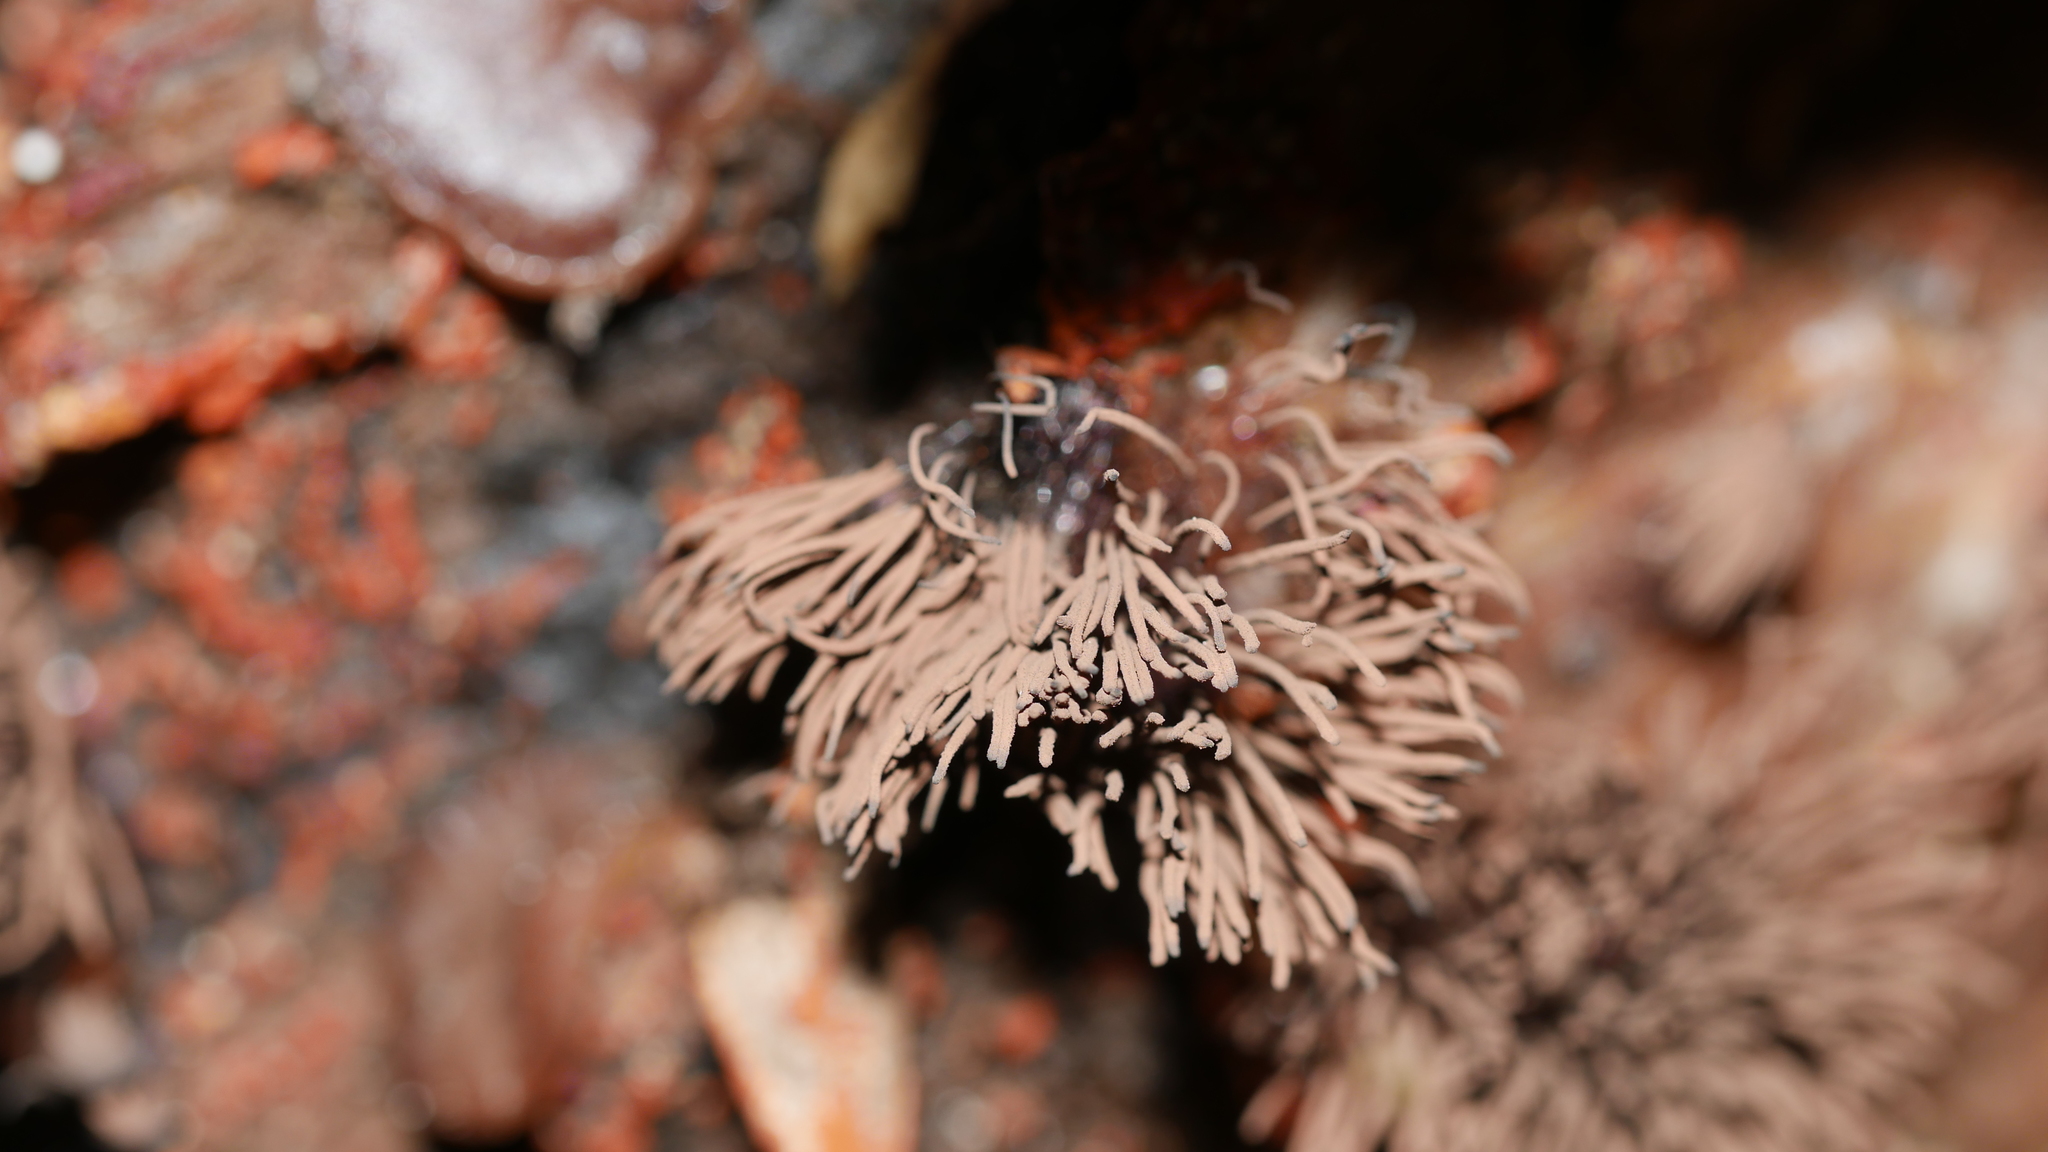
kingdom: Protozoa
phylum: Mycetozoa
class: Myxomycetes
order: Stemonitidales
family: Stemonitidaceae
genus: Stemonitis
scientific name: Stemonitis splendens
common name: Chocolate tube slime
